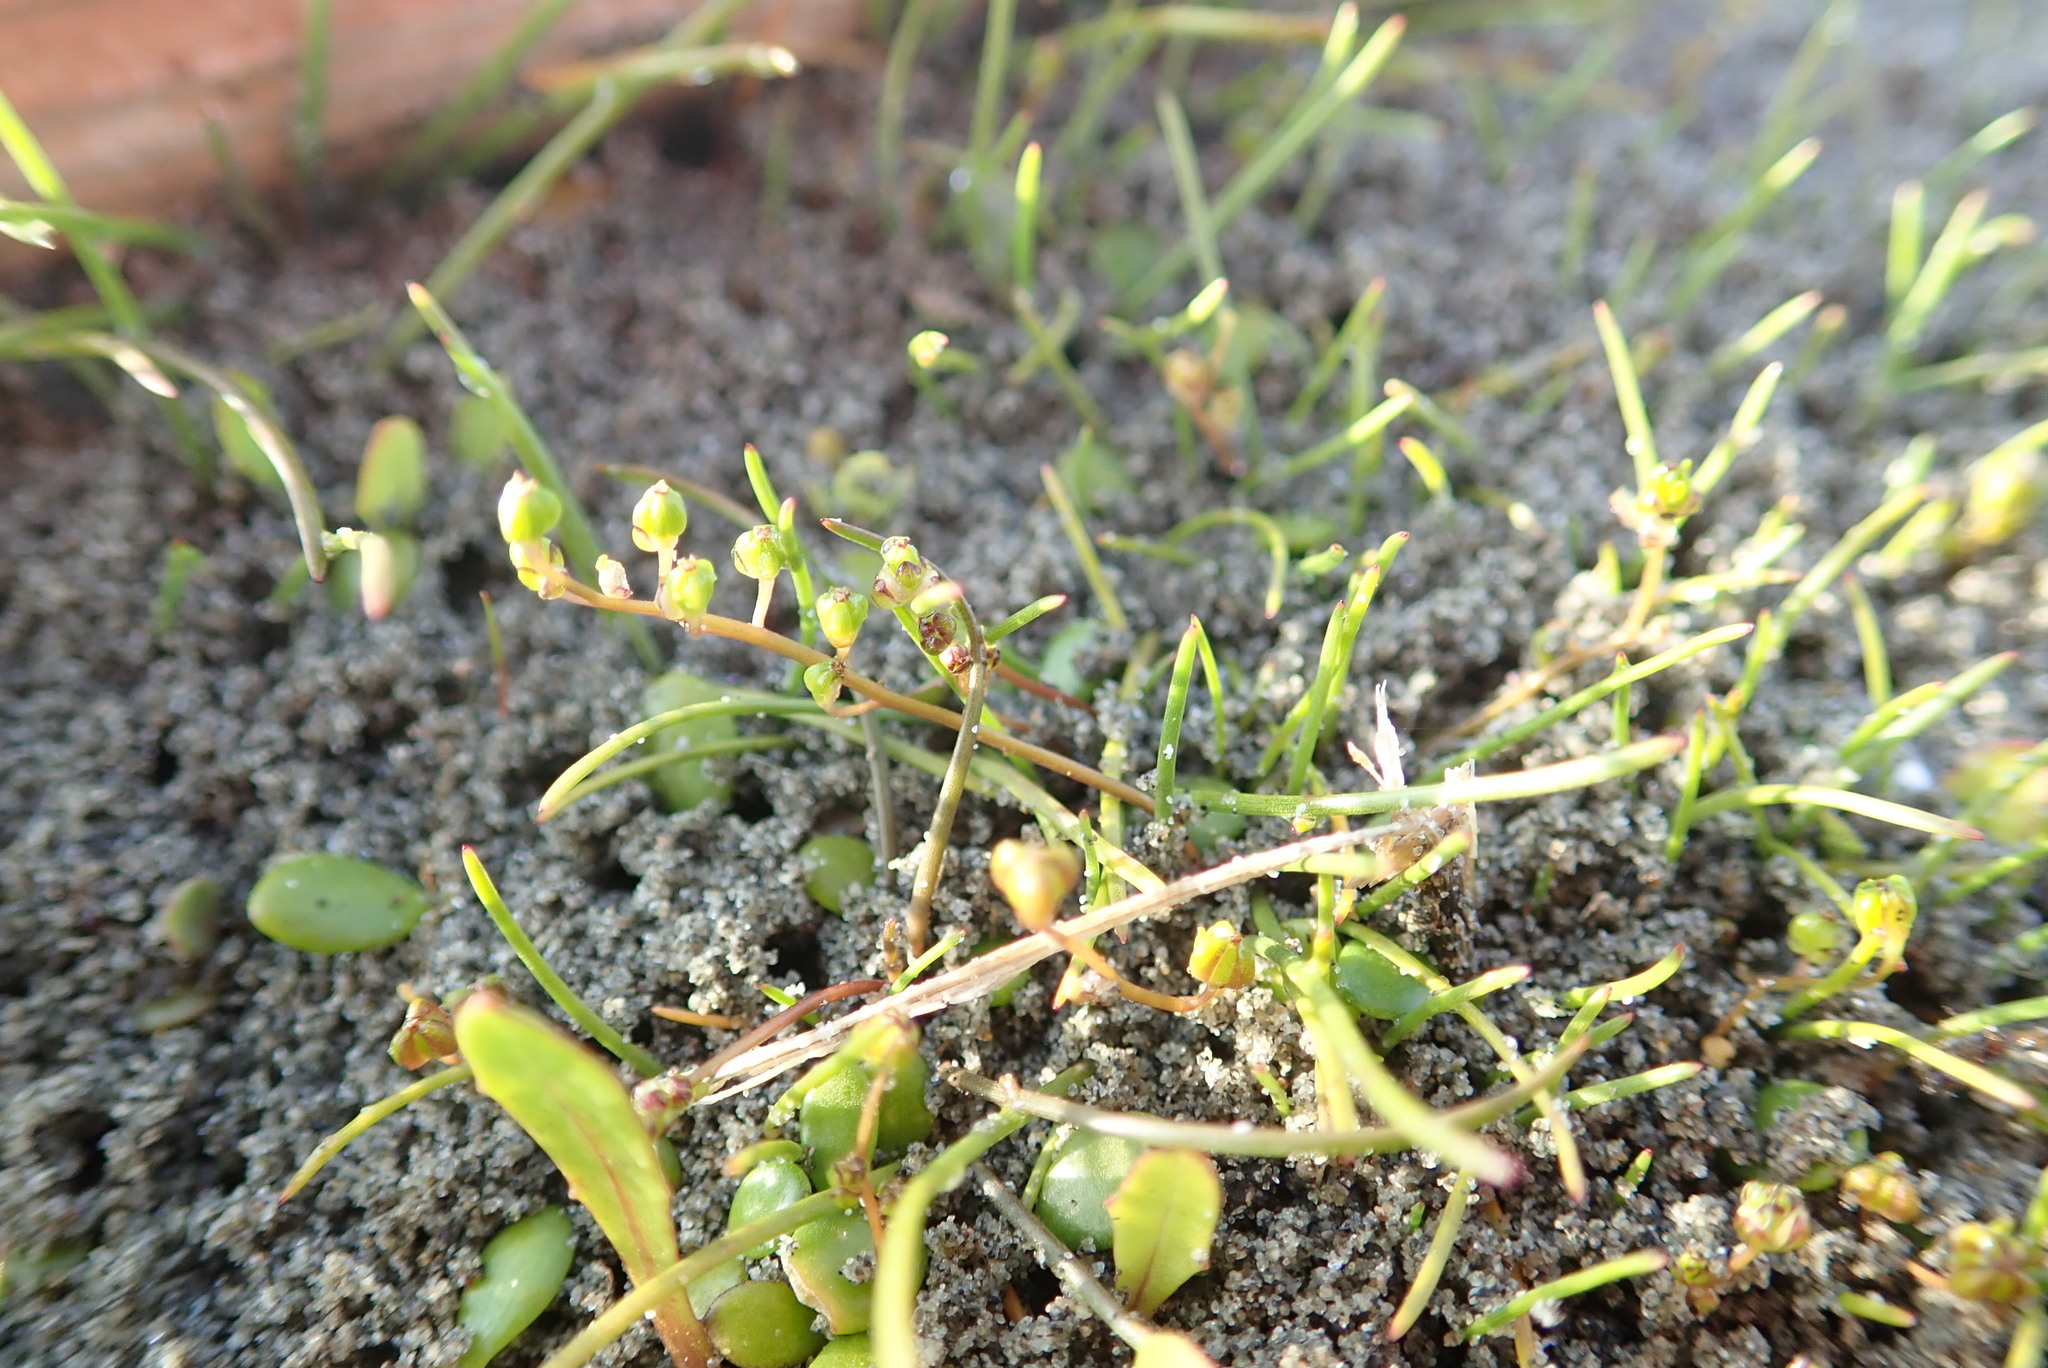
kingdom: Plantae
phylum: Tracheophyta
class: Liliopsida
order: Alismatales
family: Juncaginaceae
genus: Triglochin
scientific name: Triglochin striata
